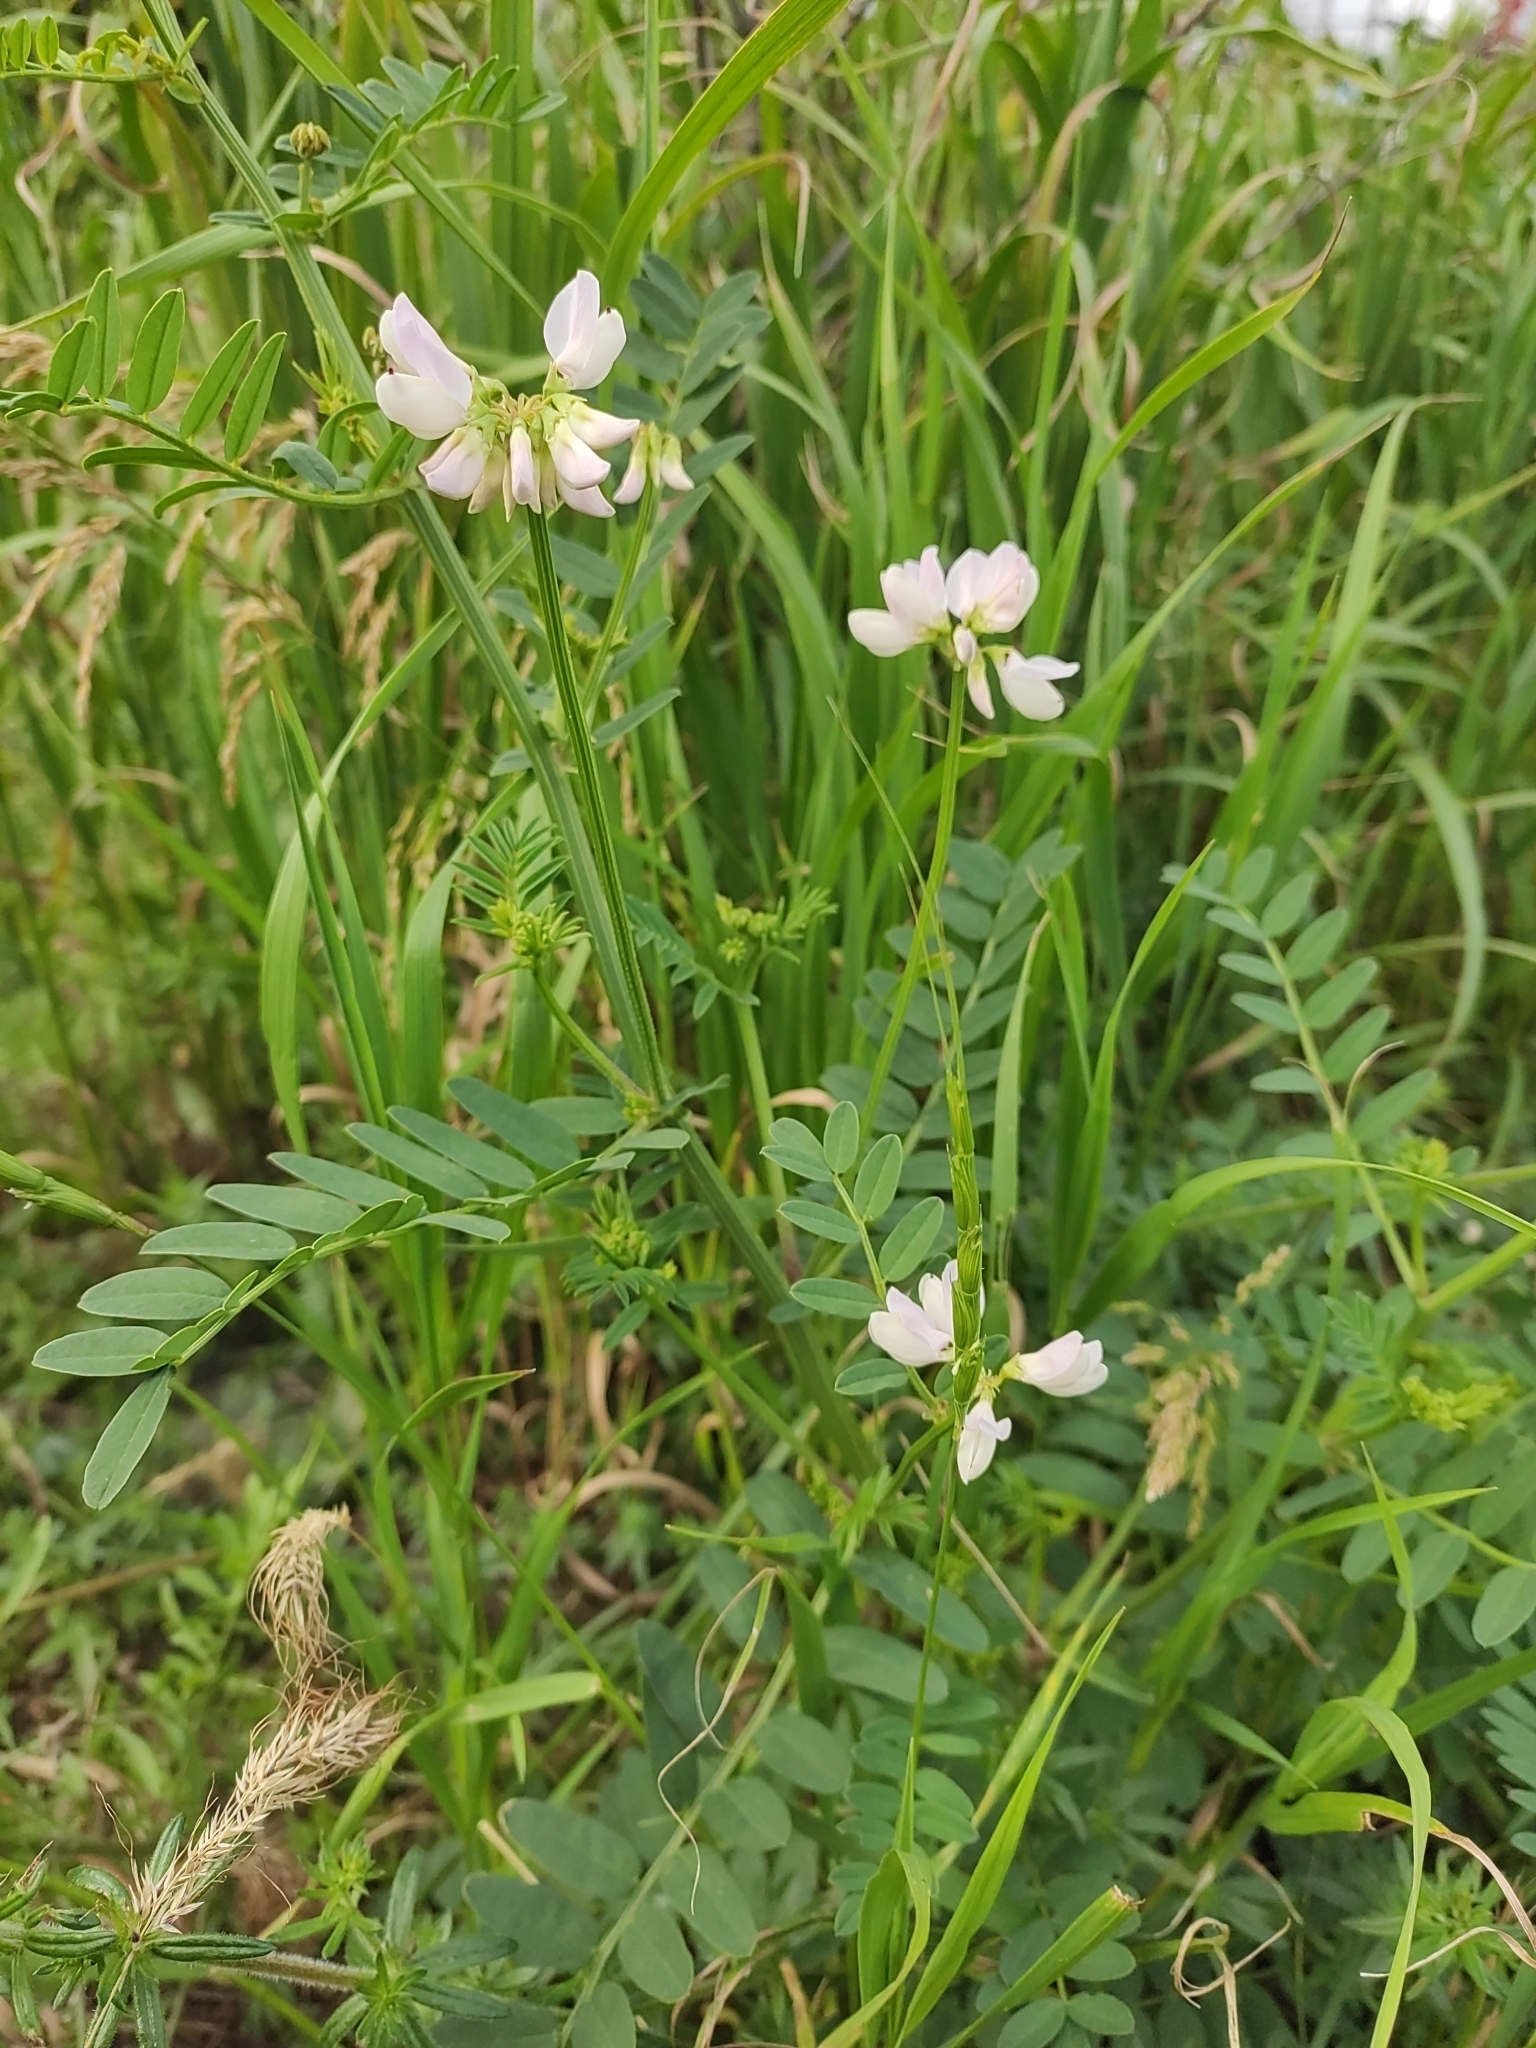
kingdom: Plantae
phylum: Tracheophyta
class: Magnoliopsida
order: Fabales
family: Fabaceae
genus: Coronilla
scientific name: Coronilla varia
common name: Crownvetch
